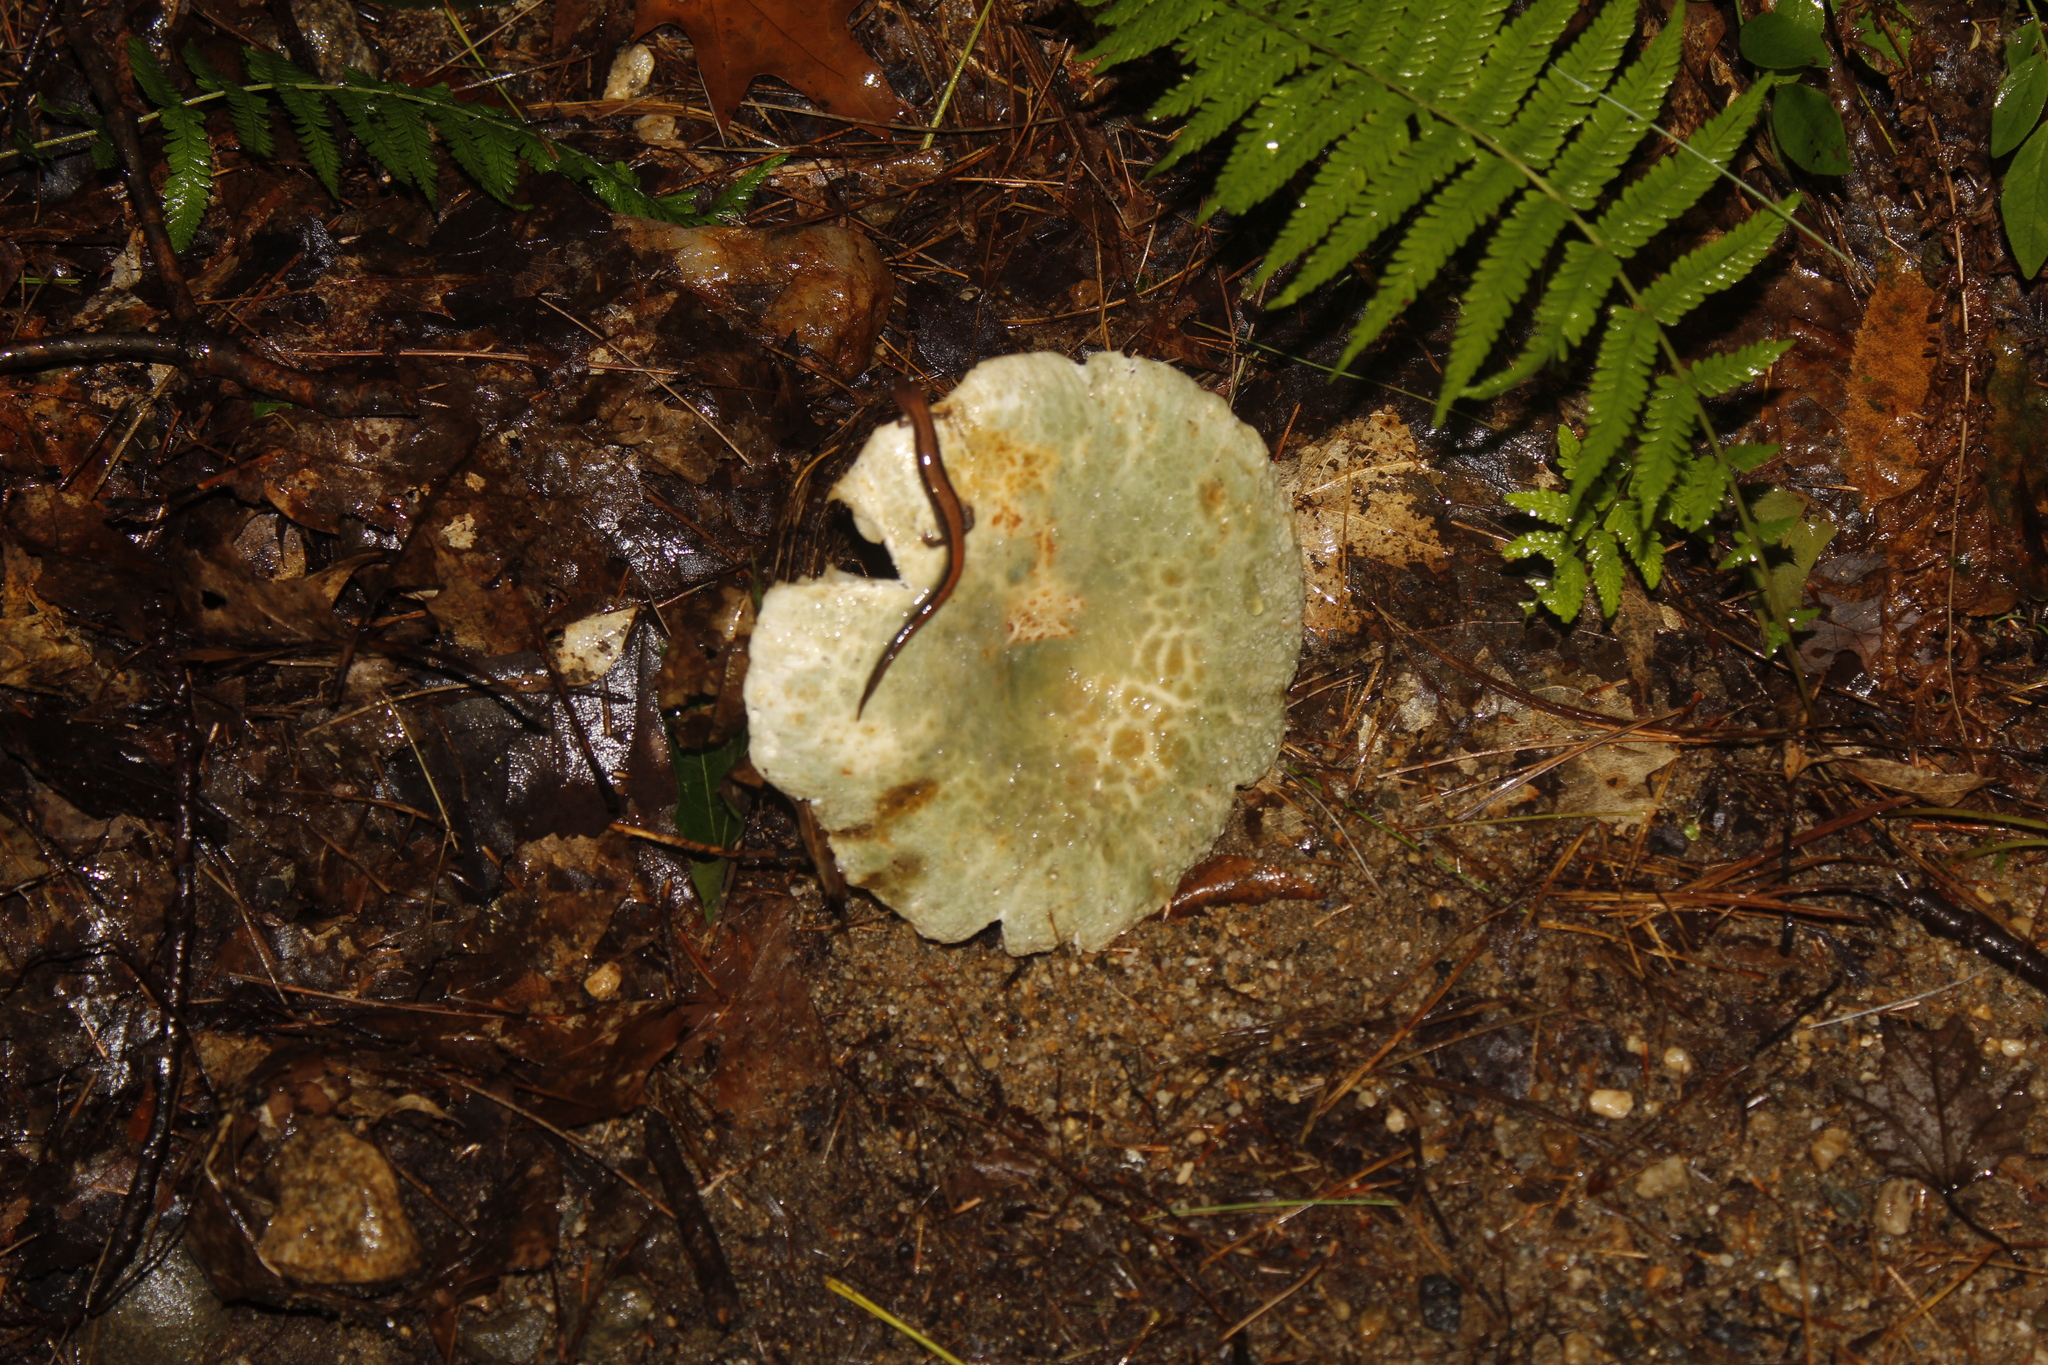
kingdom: Animalia
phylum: Chordata
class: Amphibia
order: Caudata
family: Plethodontidae
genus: Plethodon
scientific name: Plethodon cinereus
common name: Redback salamander
